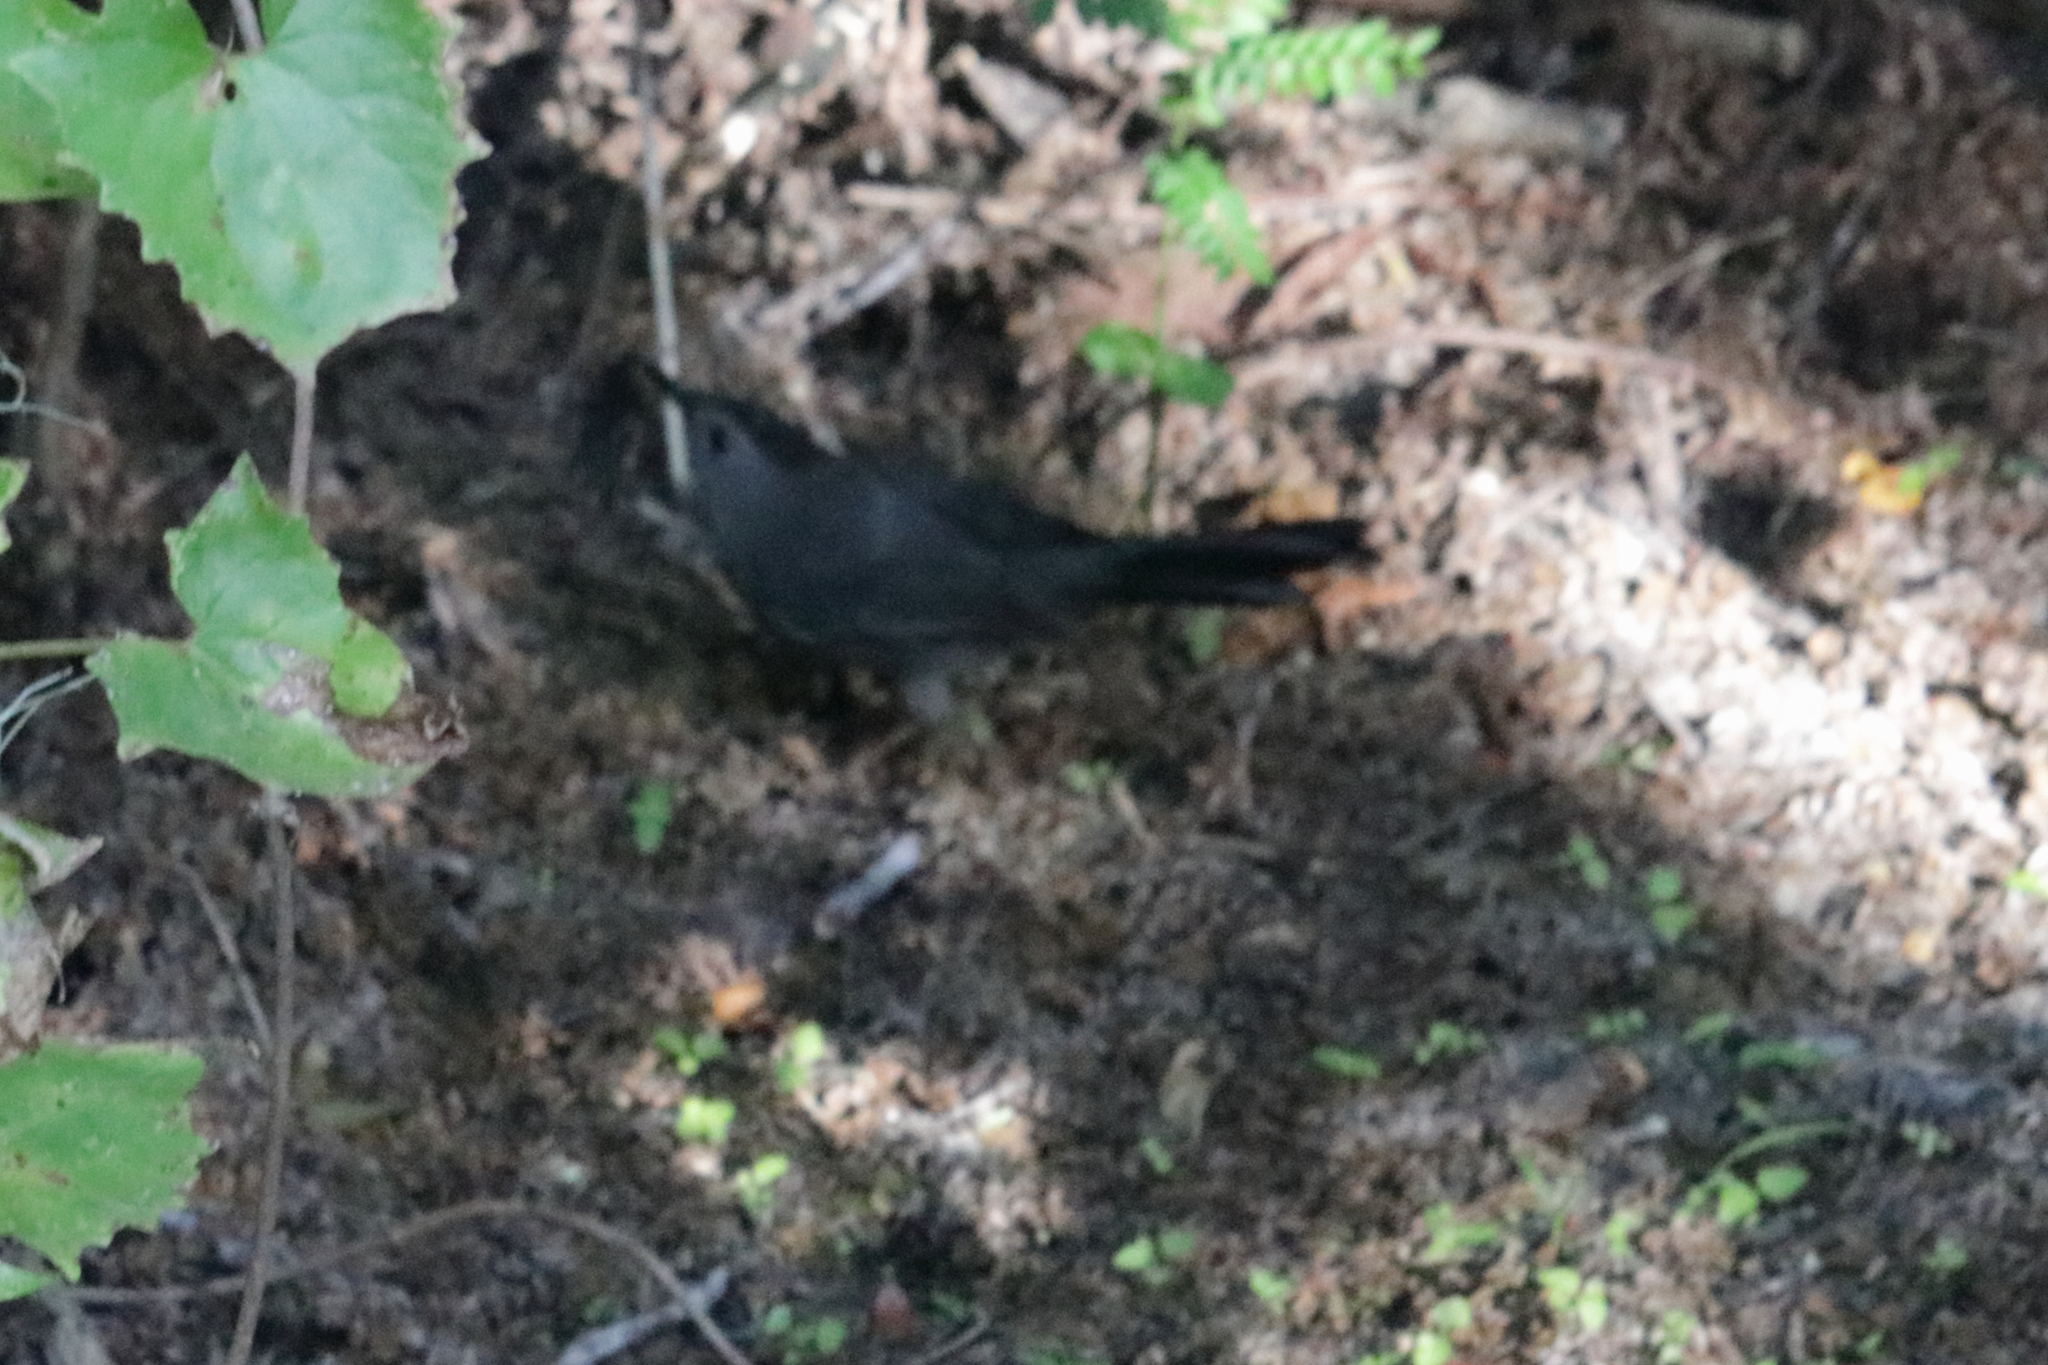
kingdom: Animalia
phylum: Chordata
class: Aves
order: Passeriformes
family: Mimidae
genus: Dumetella
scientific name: Dumetella carolinensis
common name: Gray catbird
